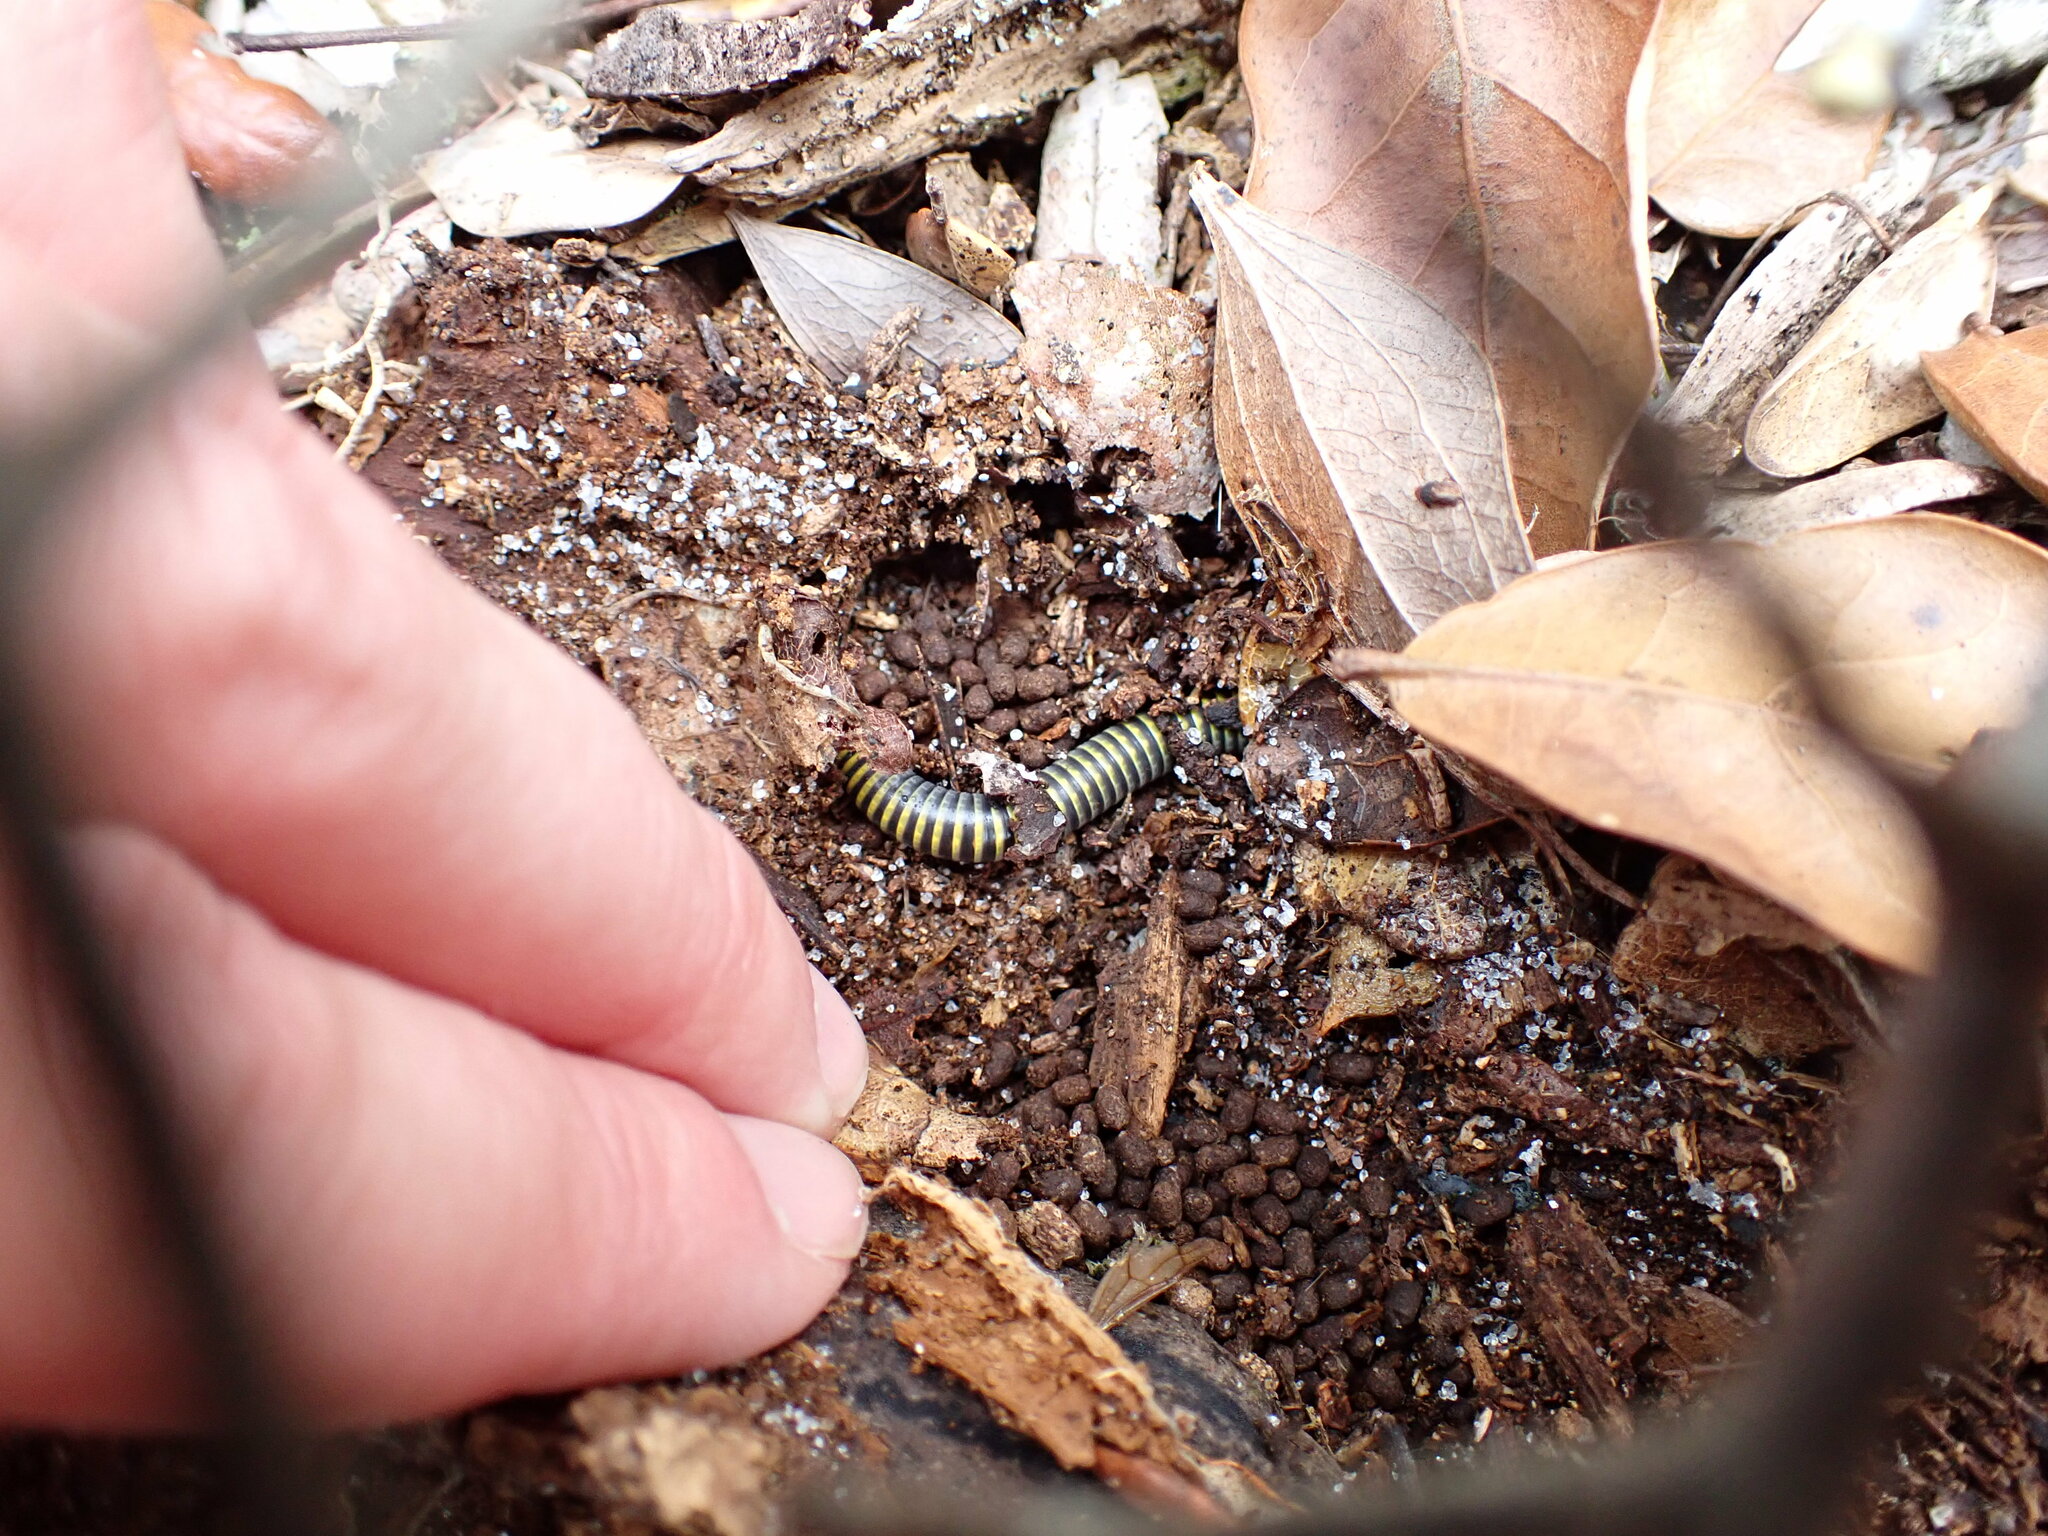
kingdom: Animalia
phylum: Arthropoda
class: Diplopoda
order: Spirobolida
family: Rhinocricidae
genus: Anadenobolus
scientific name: Anadenobolus monilicornis
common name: Caribbean millipede
